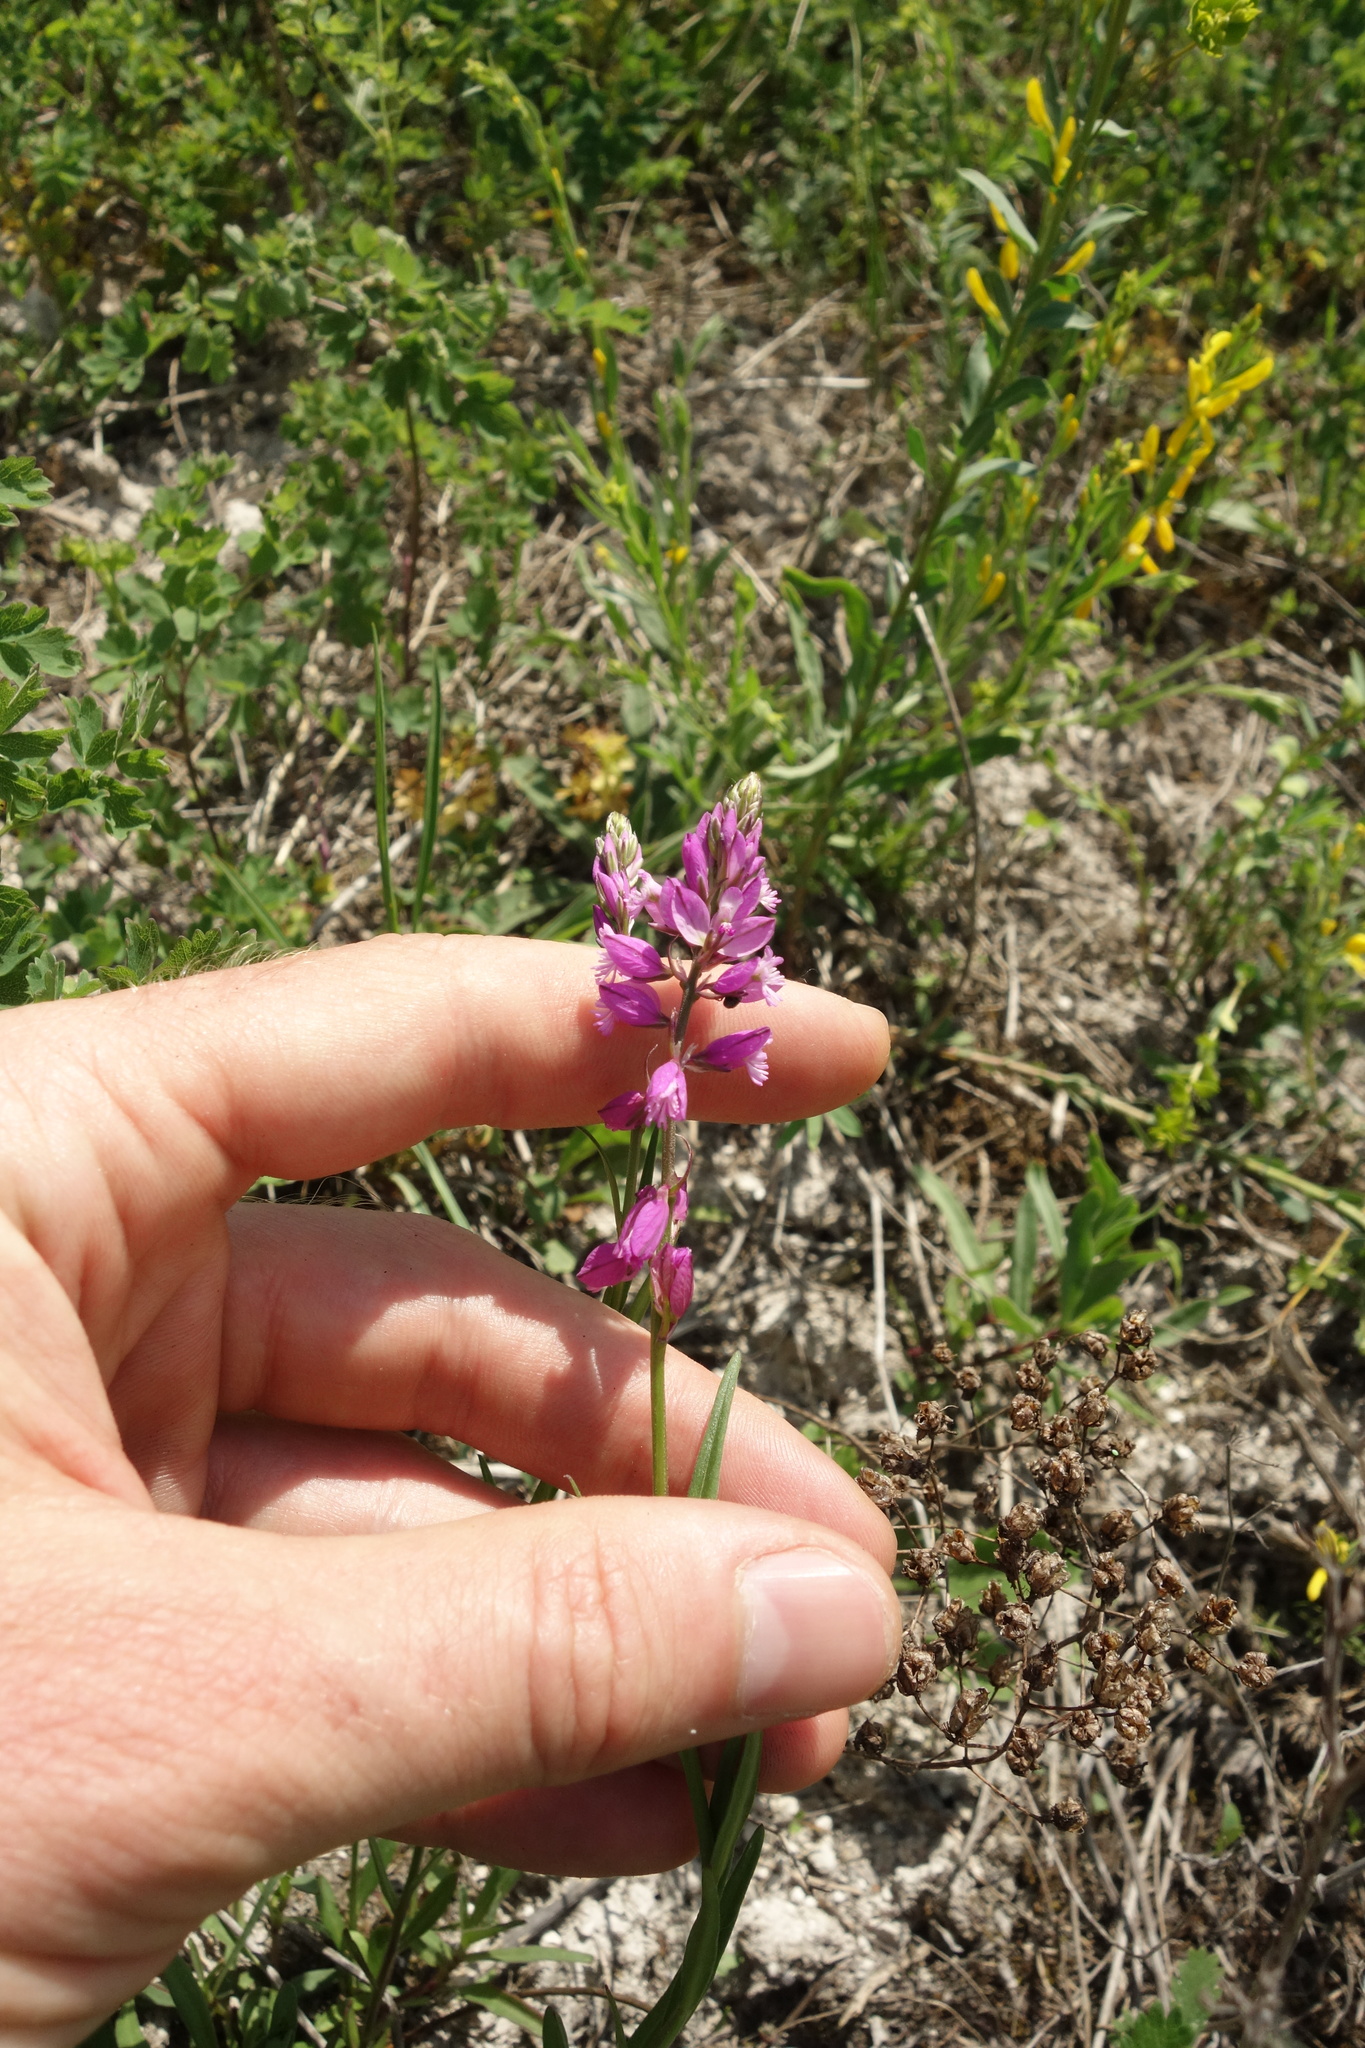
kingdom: Plantae
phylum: Tracheophyta
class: Magnoliopsida
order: Fabales
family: Polygalaceae
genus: Polygala
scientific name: Polygala nicaeensis
